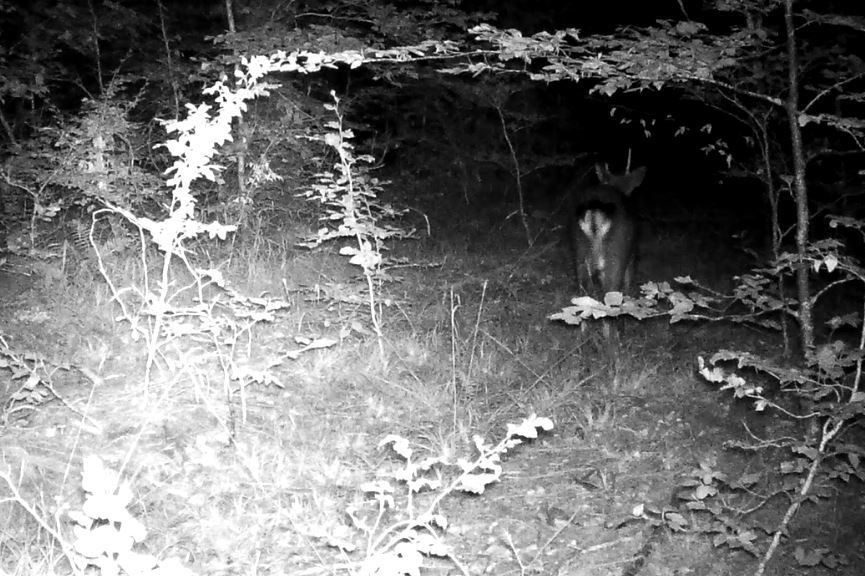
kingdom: Animalia
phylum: Chordata
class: Mammalia
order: Artiodactyla
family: Cervidae
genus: Dama
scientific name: Dama dama
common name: Fallow deer
